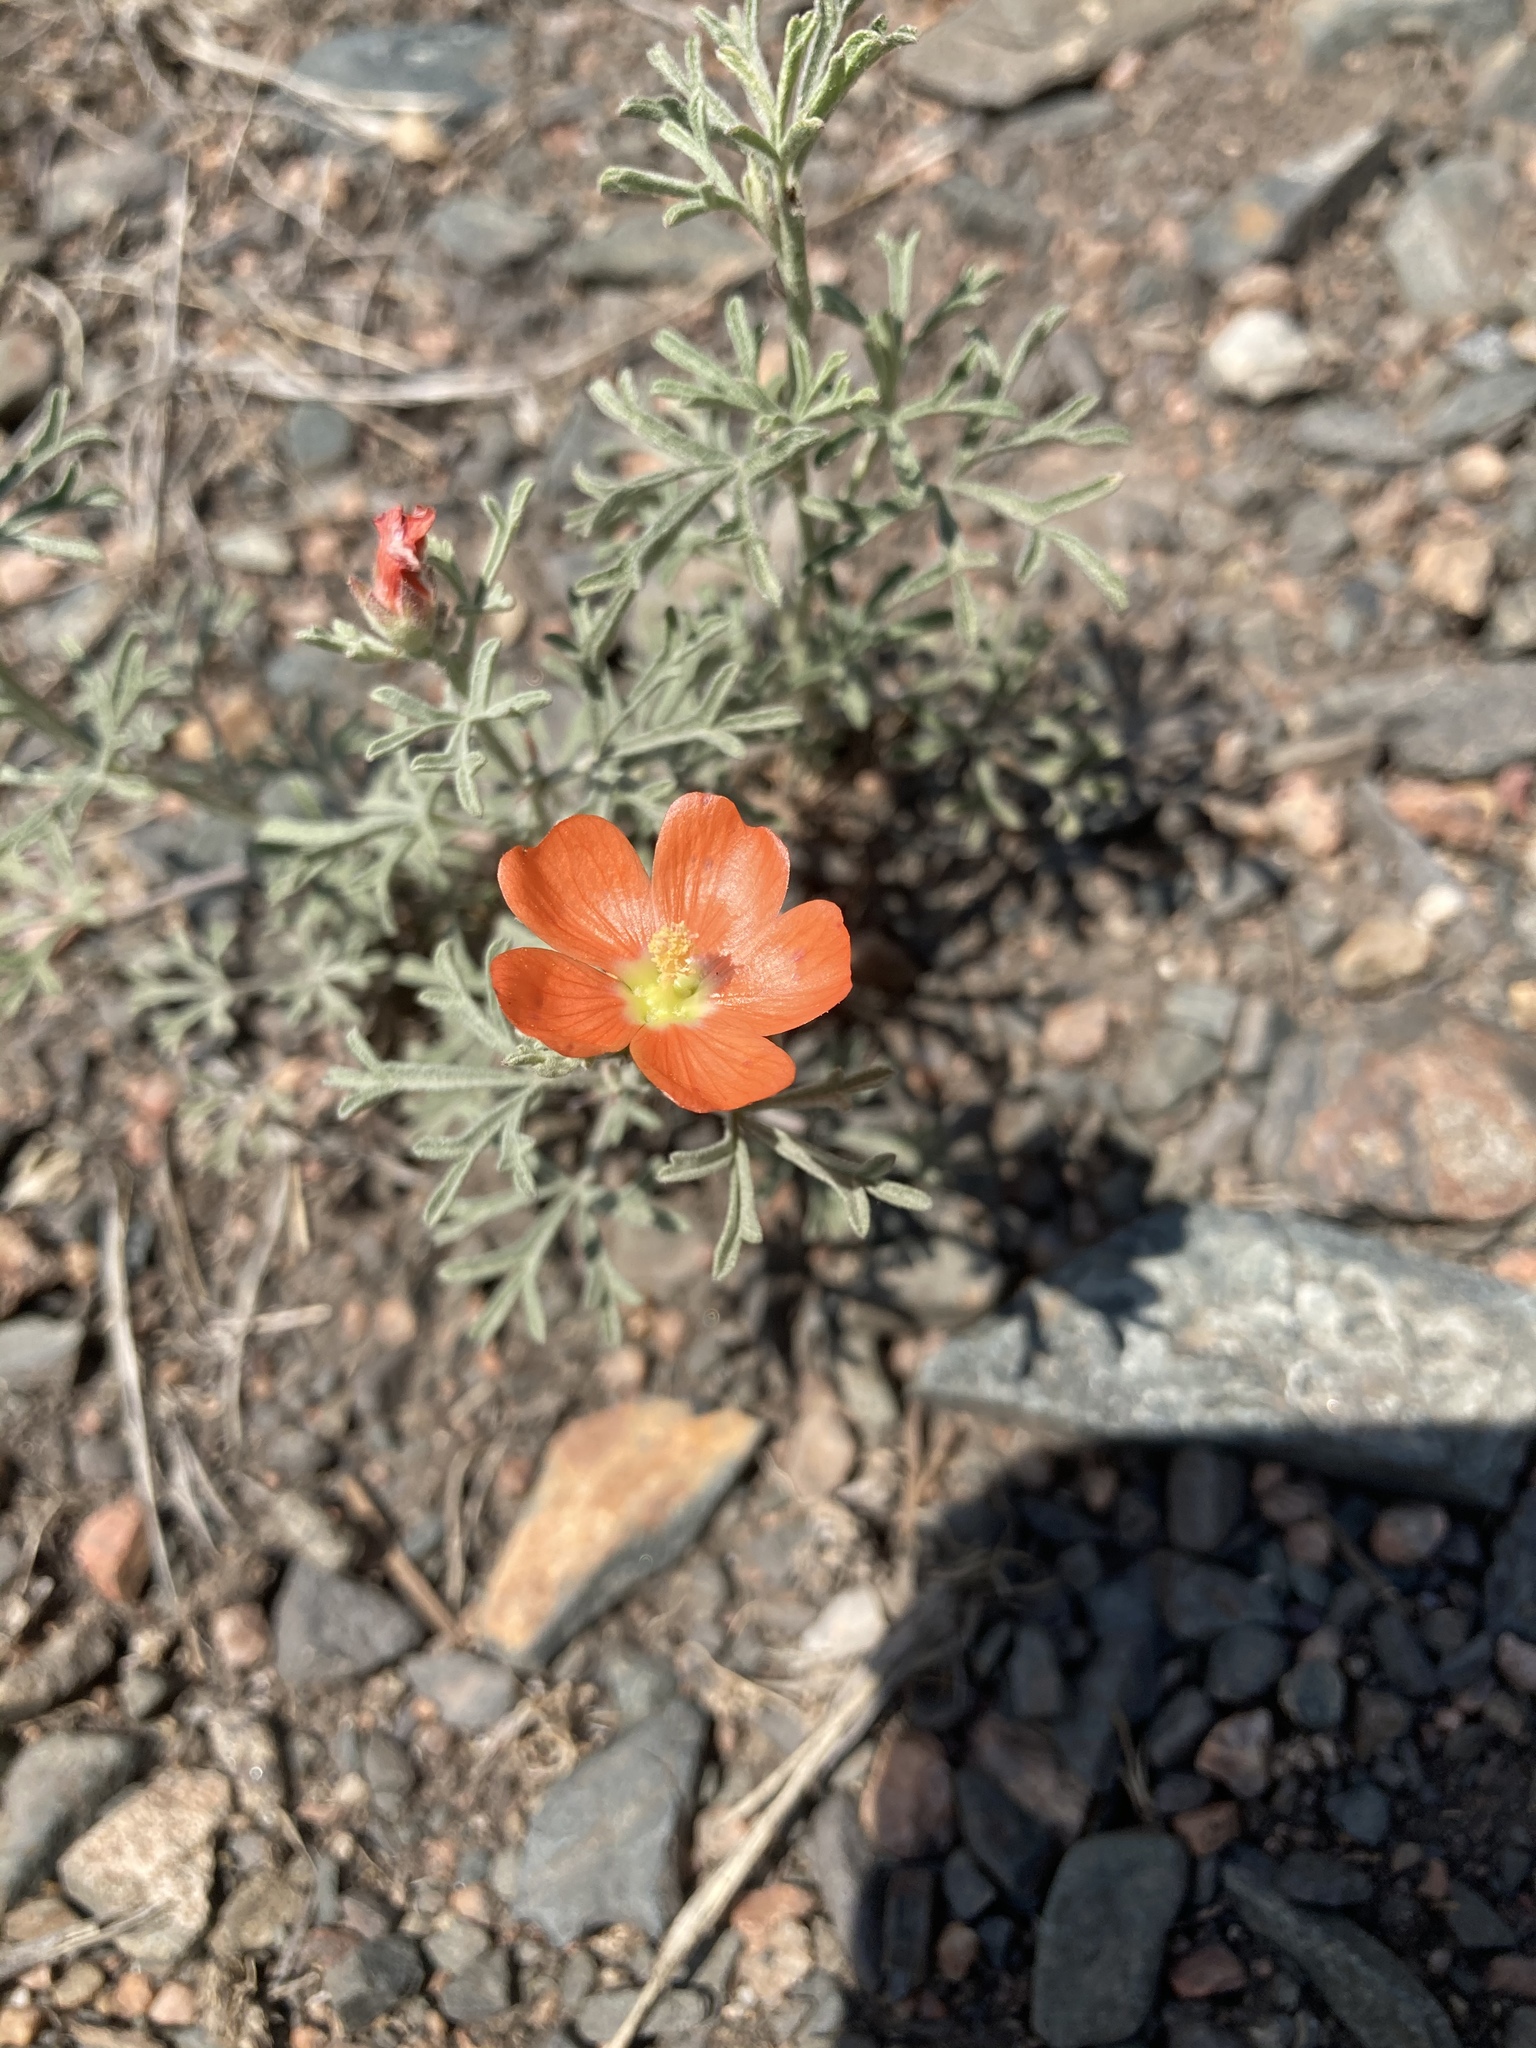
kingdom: Plantae
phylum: Tracheophyta
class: Magnoliopsida
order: Malvales
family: Malvaceae
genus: Sphaeralcea
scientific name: Sphaeralcea coccinea
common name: Moss-rose
